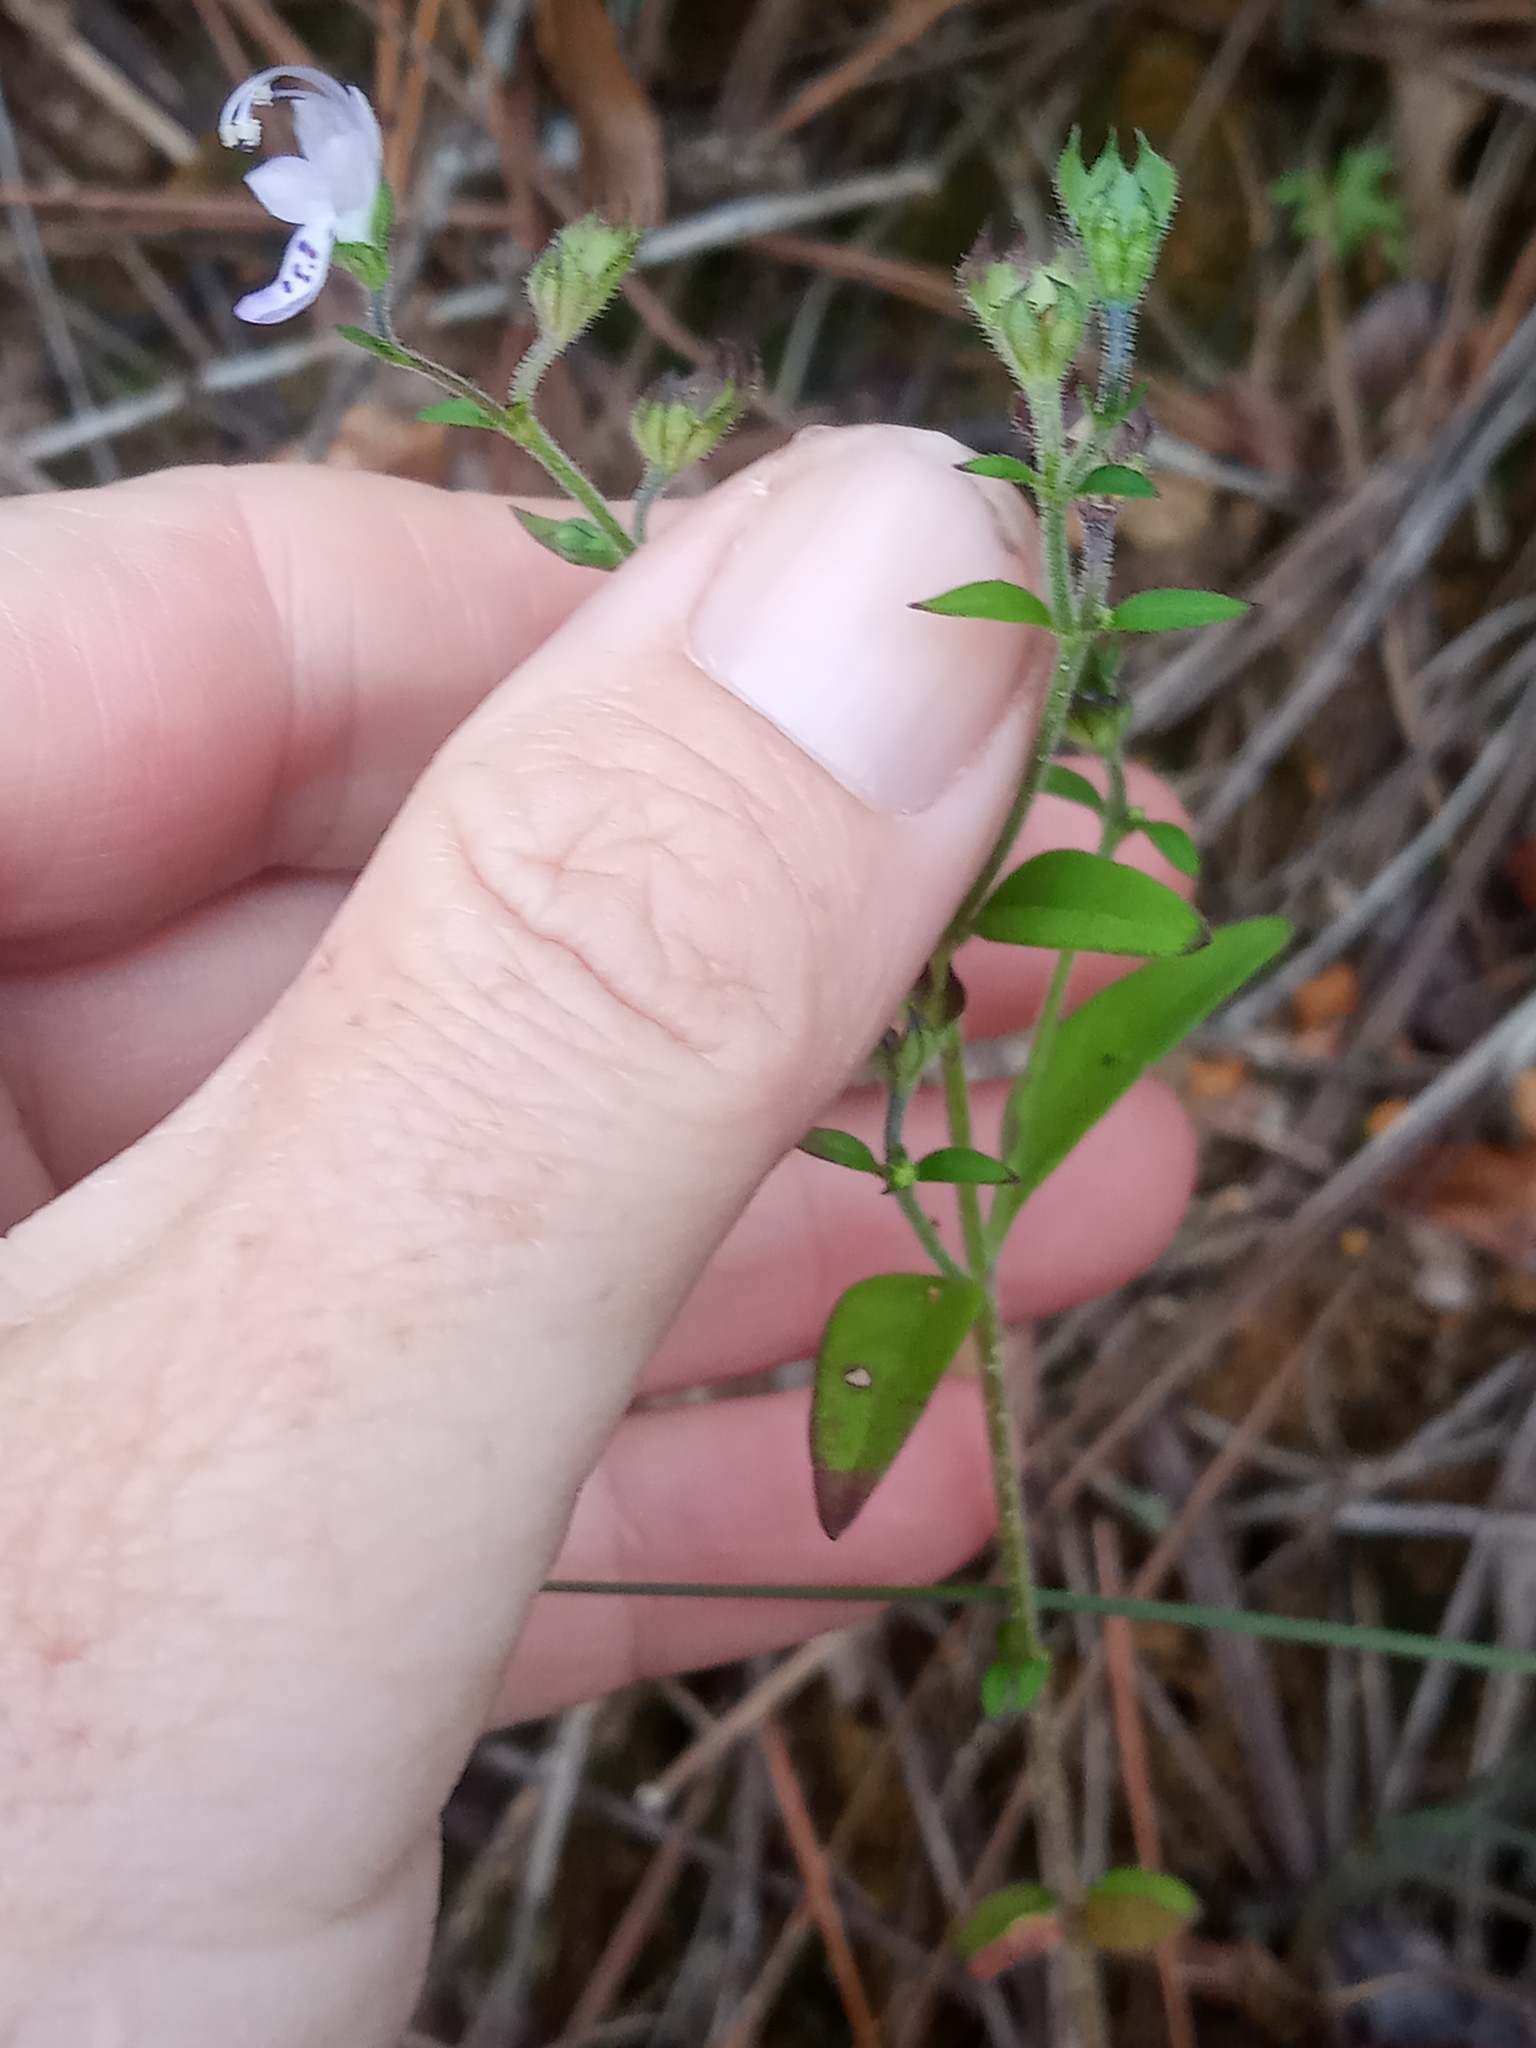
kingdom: Plantae
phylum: Tracheophyta
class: Magnoliopsida
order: Lamiales
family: Lamiaceae
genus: Trichostema
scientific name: Trichostema dichotomum
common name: Bastard pennyroyal
